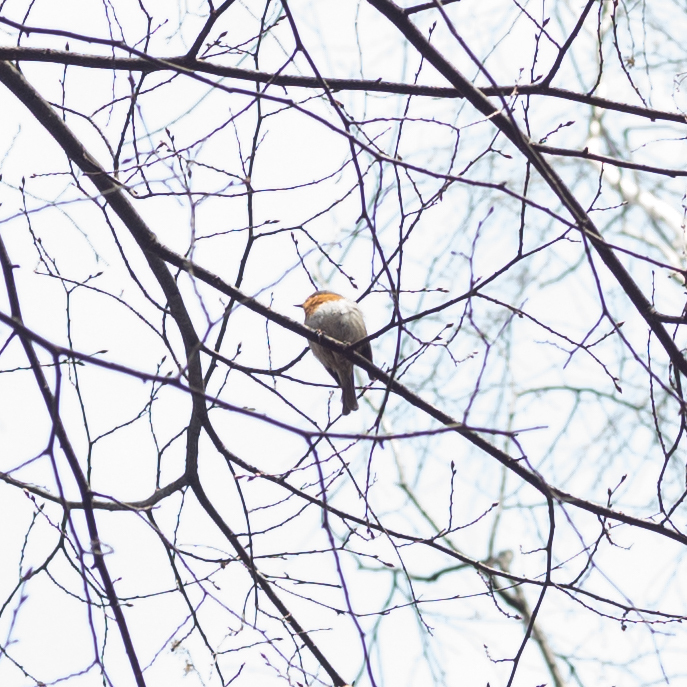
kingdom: Animalia
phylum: Chordata
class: Aves
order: Passeriformes
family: Muscicapidae
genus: Erithacus
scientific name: Erithacus rubecula
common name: European robin
